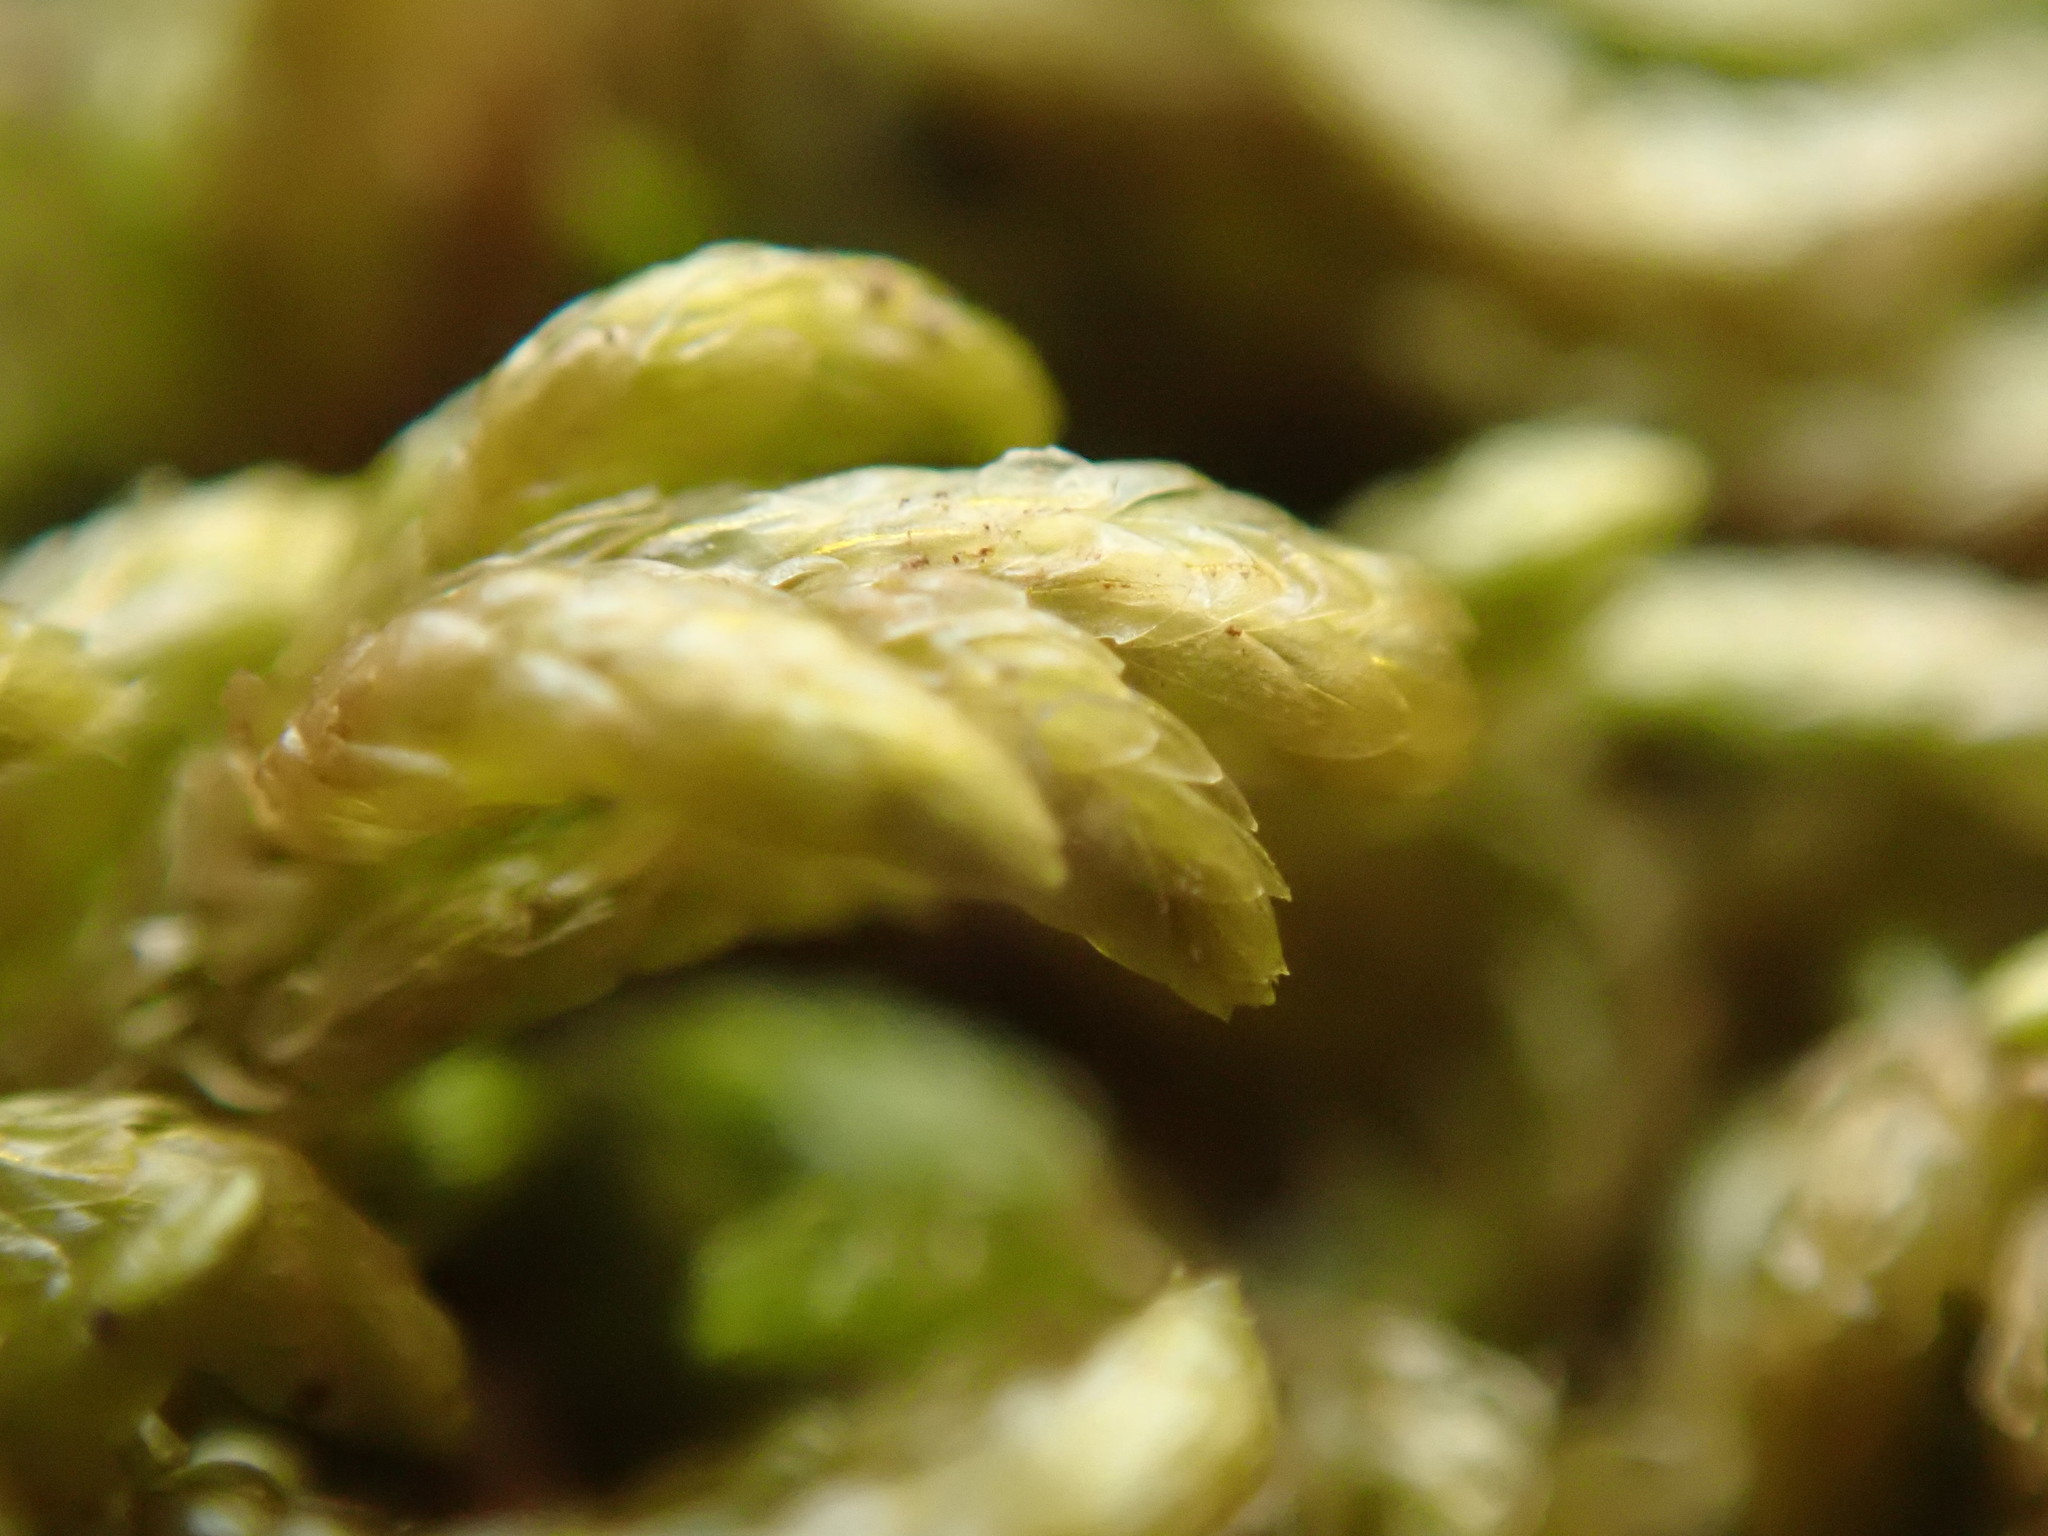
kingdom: Plantae
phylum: Bryophyta
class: Bryopsida
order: Hypnales
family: Brachytheciaceae
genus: Scleropodium
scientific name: Scleropodium touretii
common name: Glass-wort feather-moss
